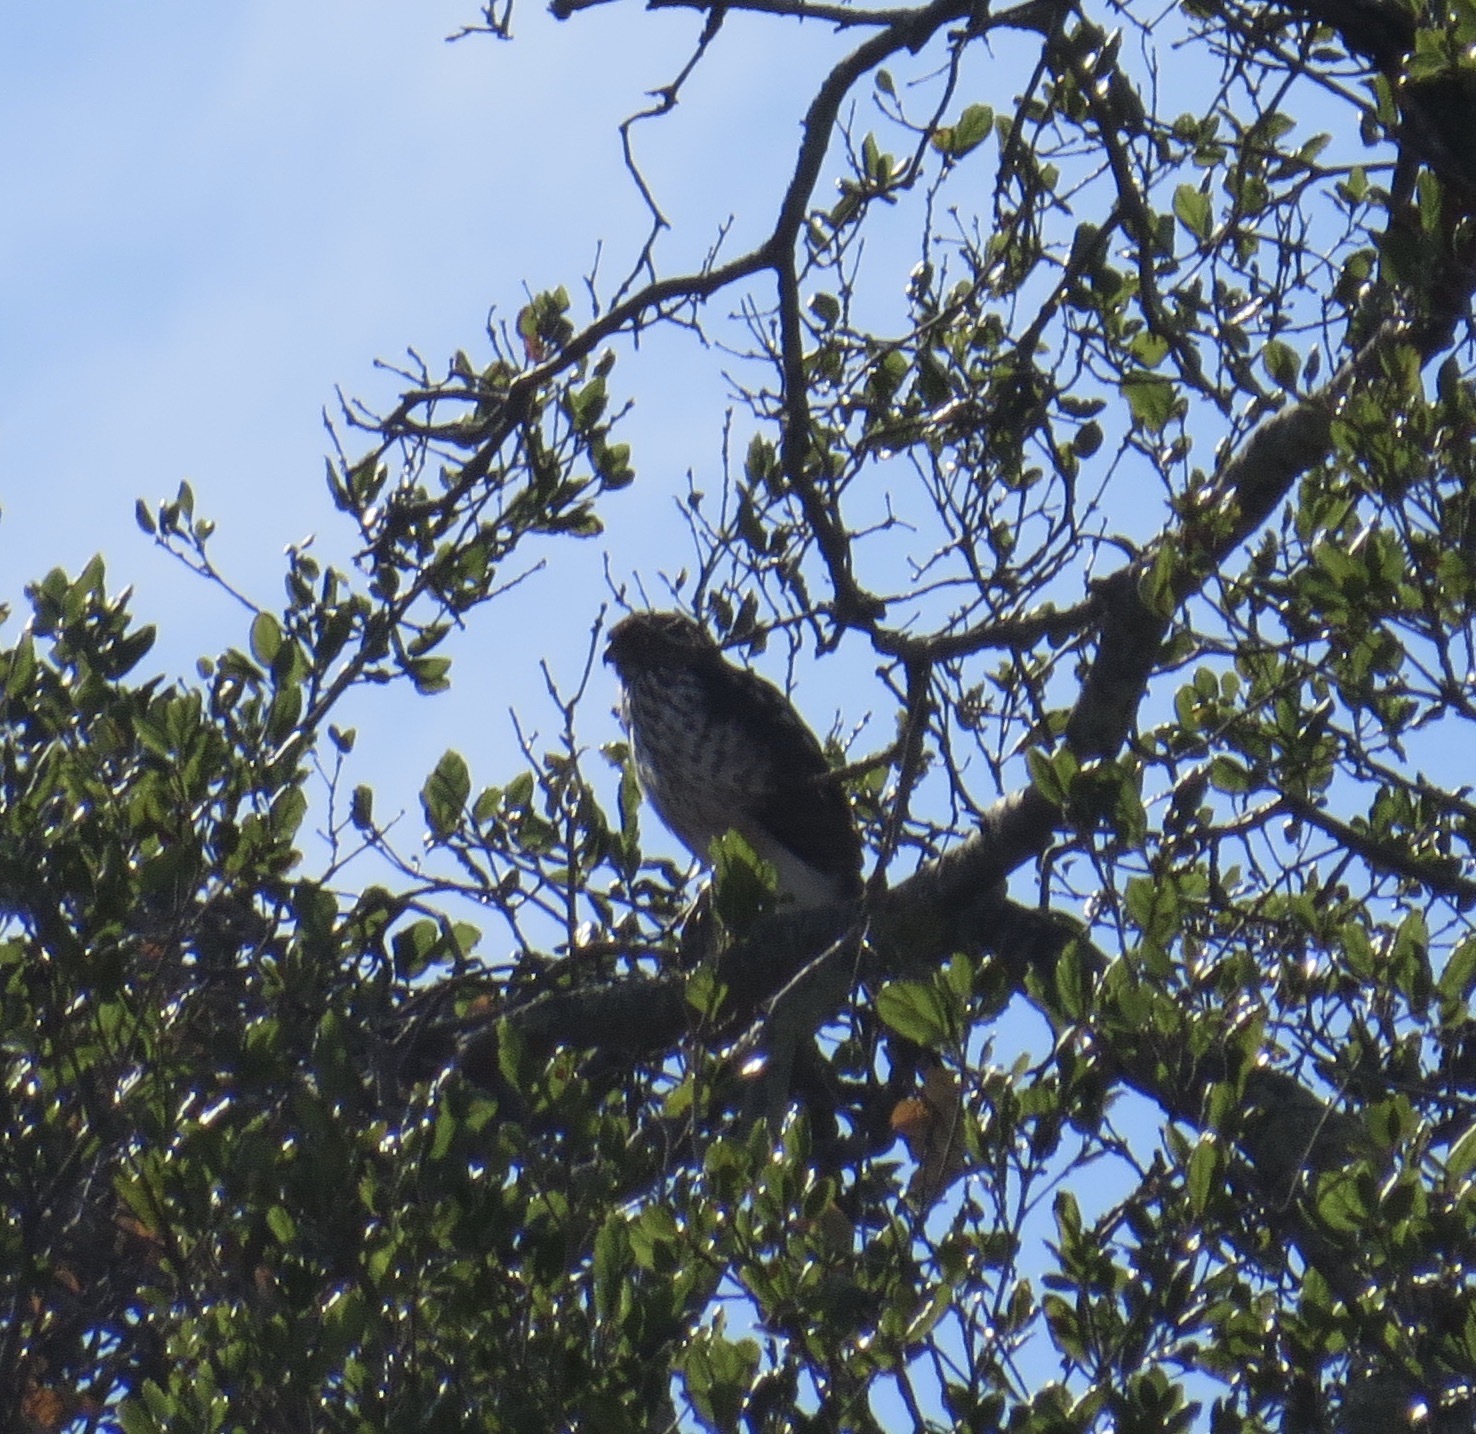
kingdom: Animalia
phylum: Chordata
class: Aves
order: Accipitriformes
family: Accipitridae
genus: Accipiter
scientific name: Accipiter cooperii
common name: Cooper's hawk
